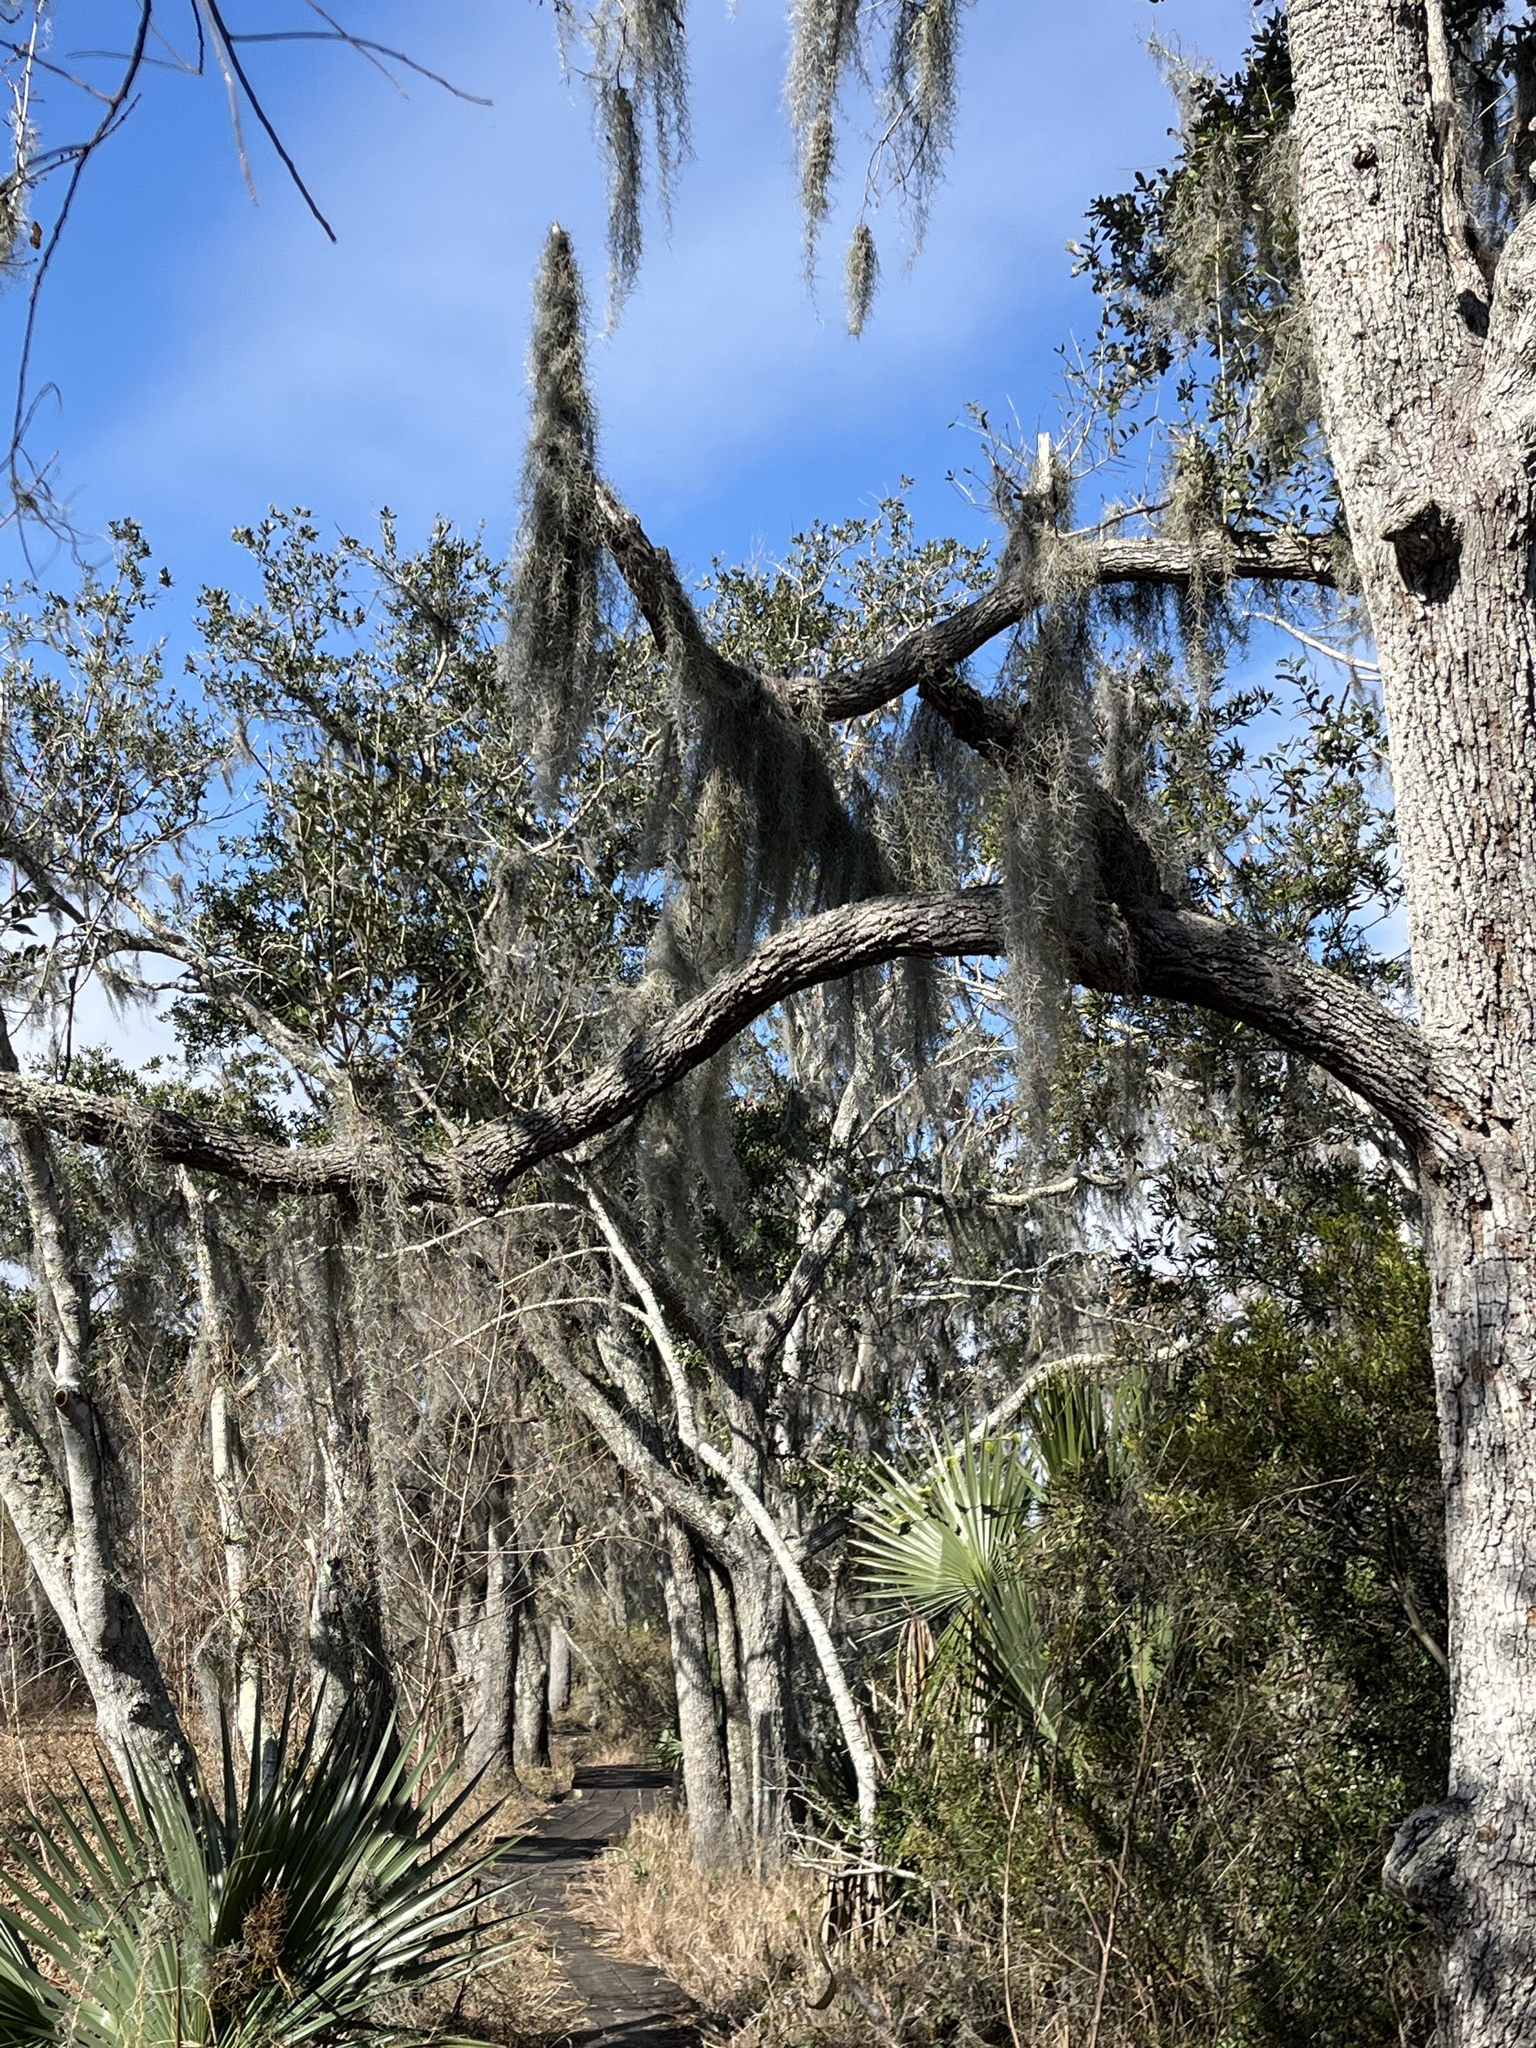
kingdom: Plantae
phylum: Tracheophyta
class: Liliopsida
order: Poales
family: Bromeliaceae
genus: Tillandsia
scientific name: Tillandsia usneoides
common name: Spanish moss
